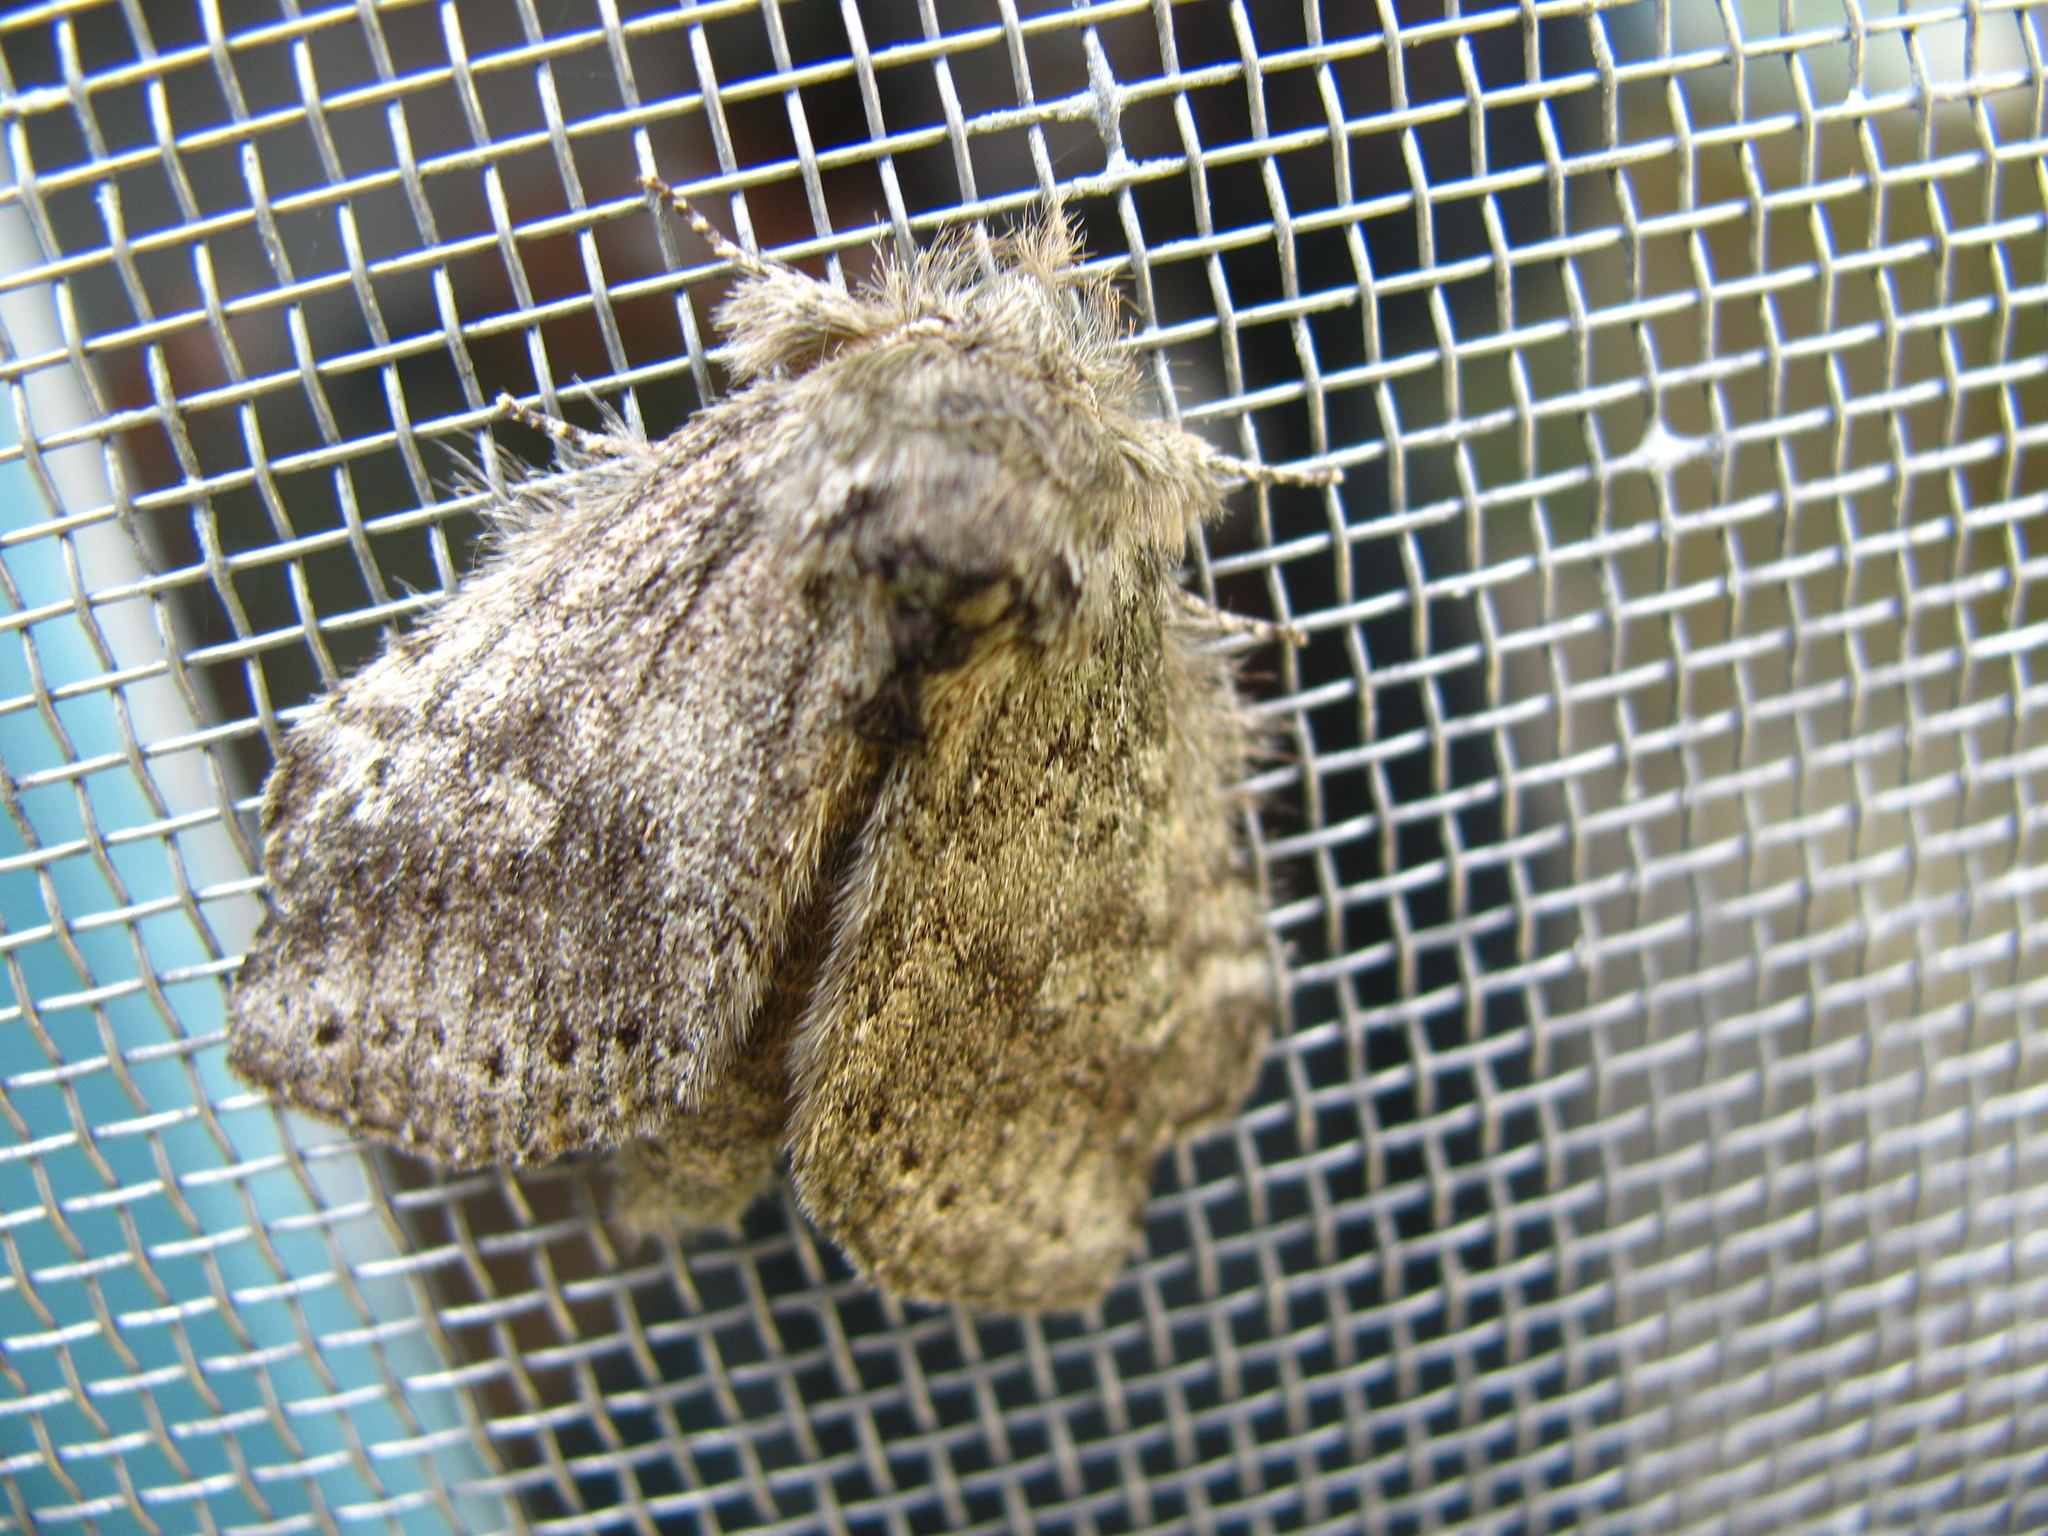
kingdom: Animalia
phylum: Arthropoda
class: Insecta
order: Lepidoptera
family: Notodontidae
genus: Disphragis
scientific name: Disphragis Cecrita guttivitta
